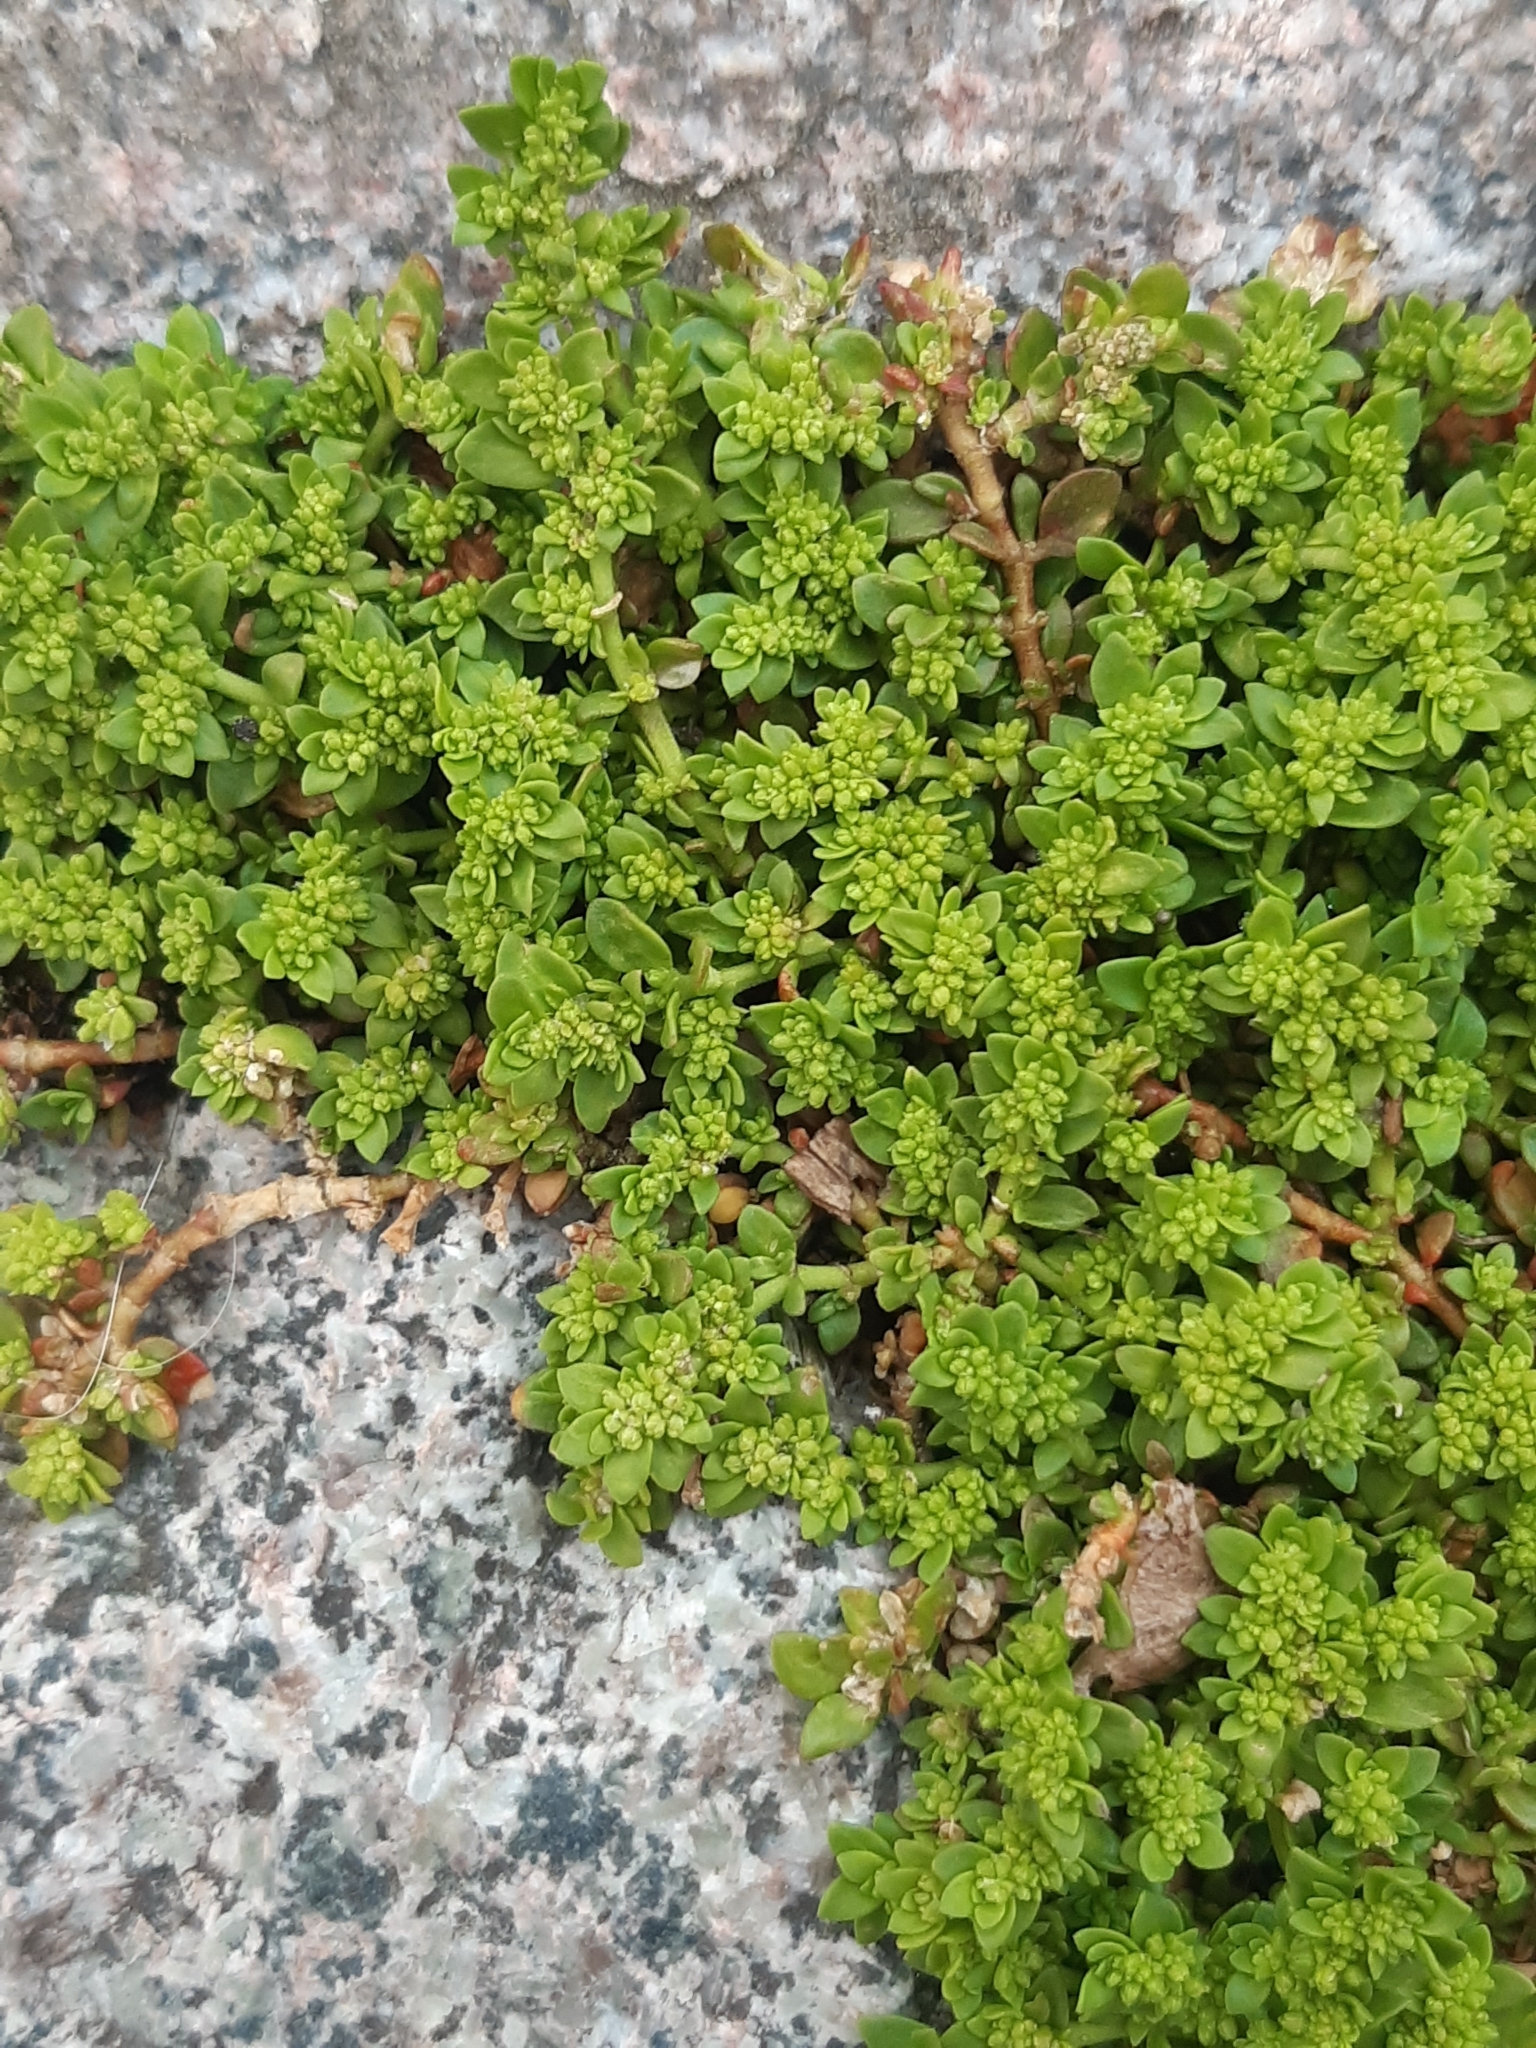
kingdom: Plantae
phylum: Tracheophyta
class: Magnoliopsida
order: Caryophyllales
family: Caryophyllaceae
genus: Herniaria
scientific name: Herniaria glabra
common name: Smooth rupturewort
